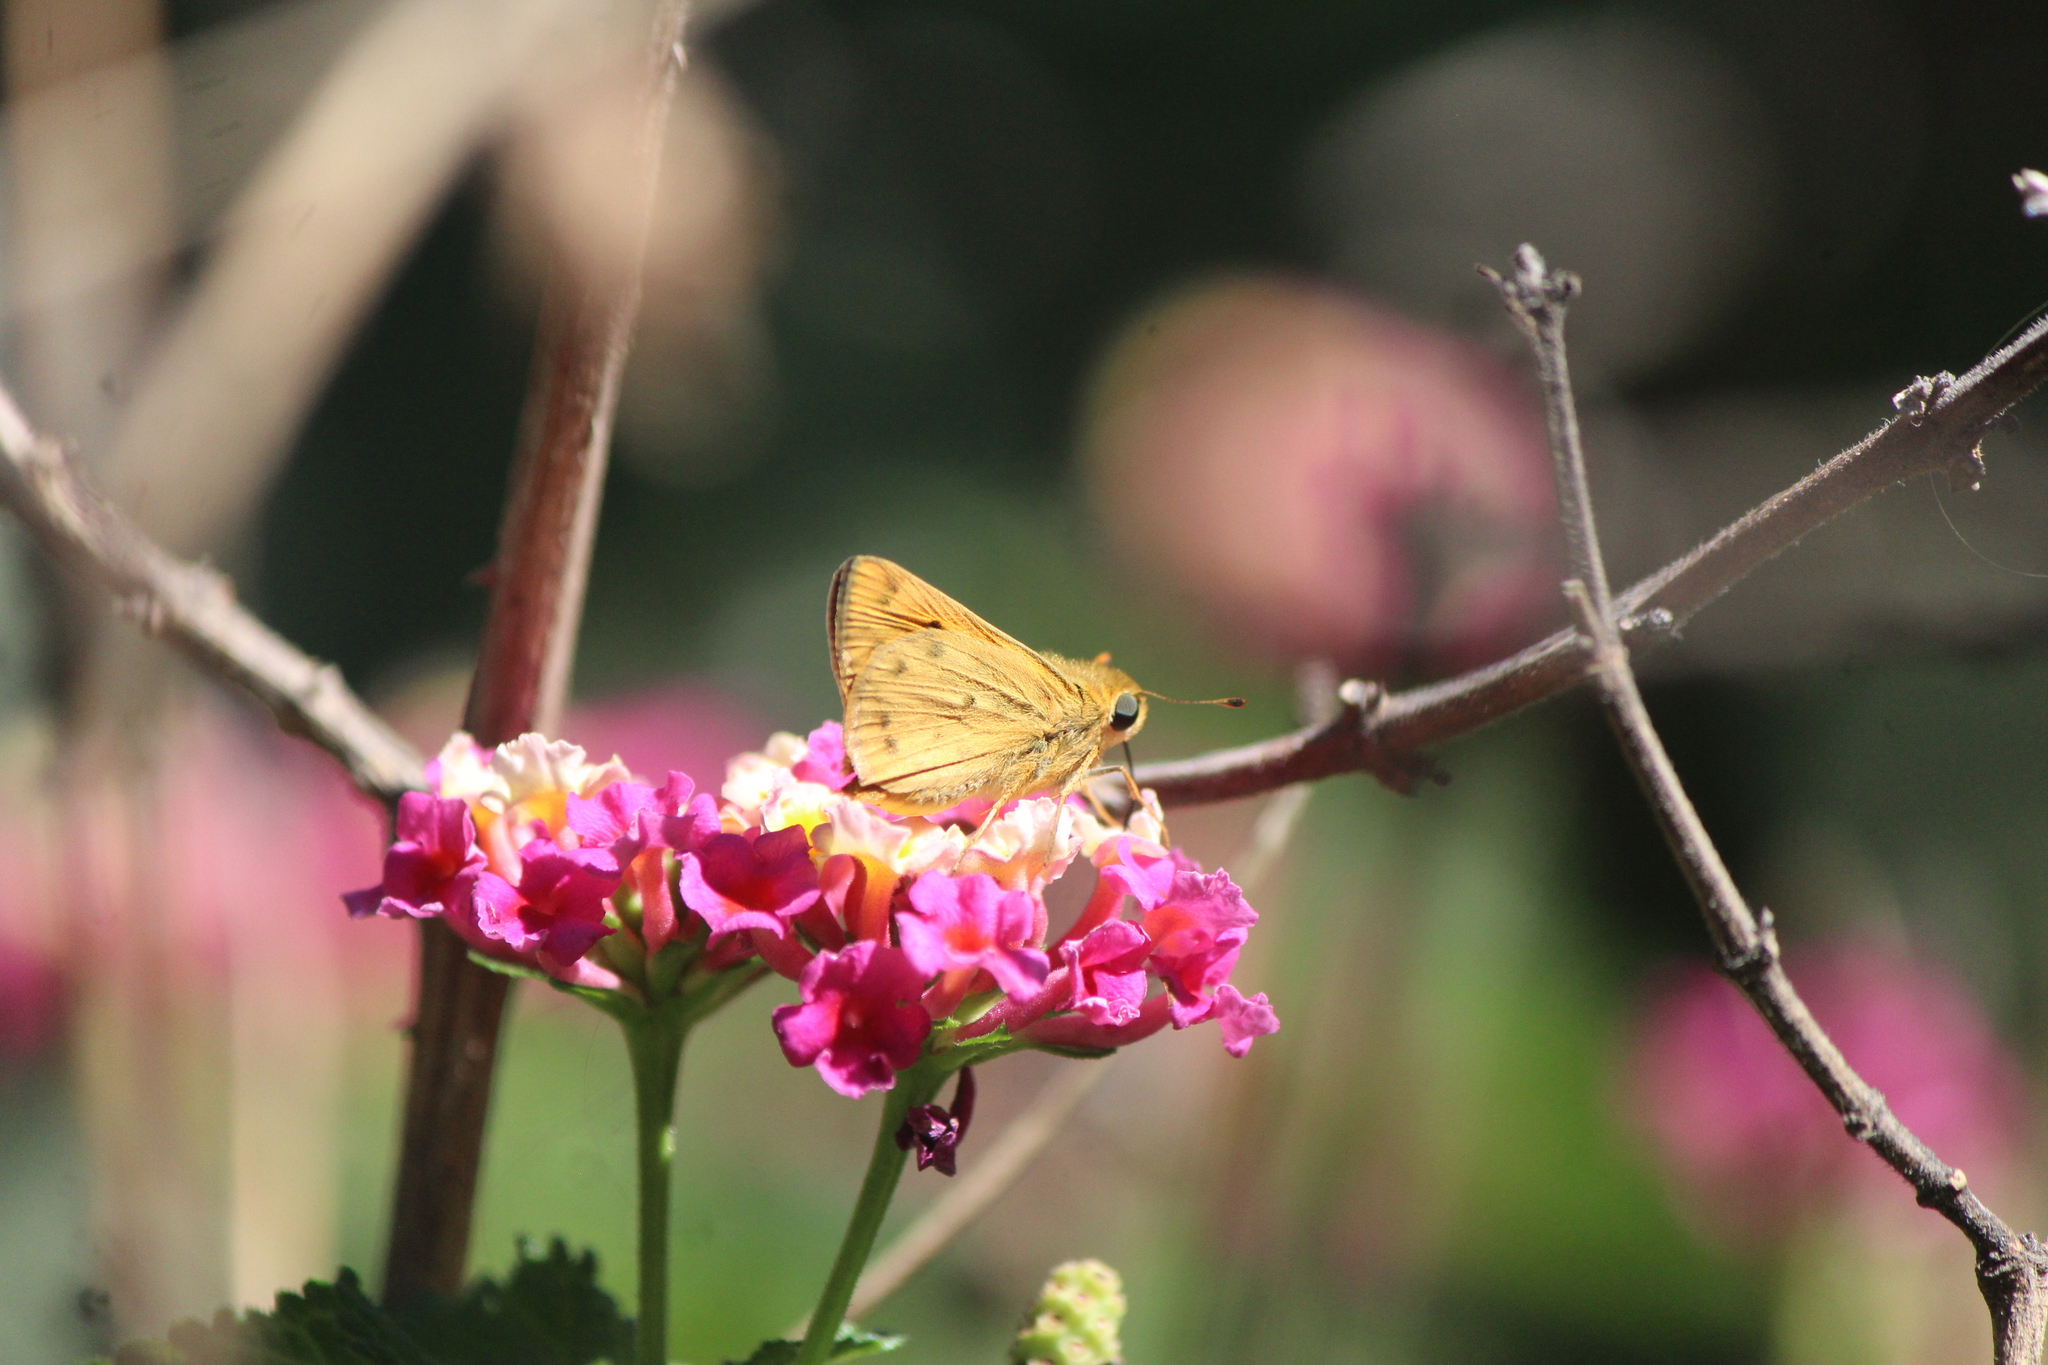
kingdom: Animalia
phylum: Arthropoda
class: Insecta
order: Lepidoptera
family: Hesperiidae
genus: Hylephila
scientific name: Hylephila phyleus
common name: Fiery skipper
